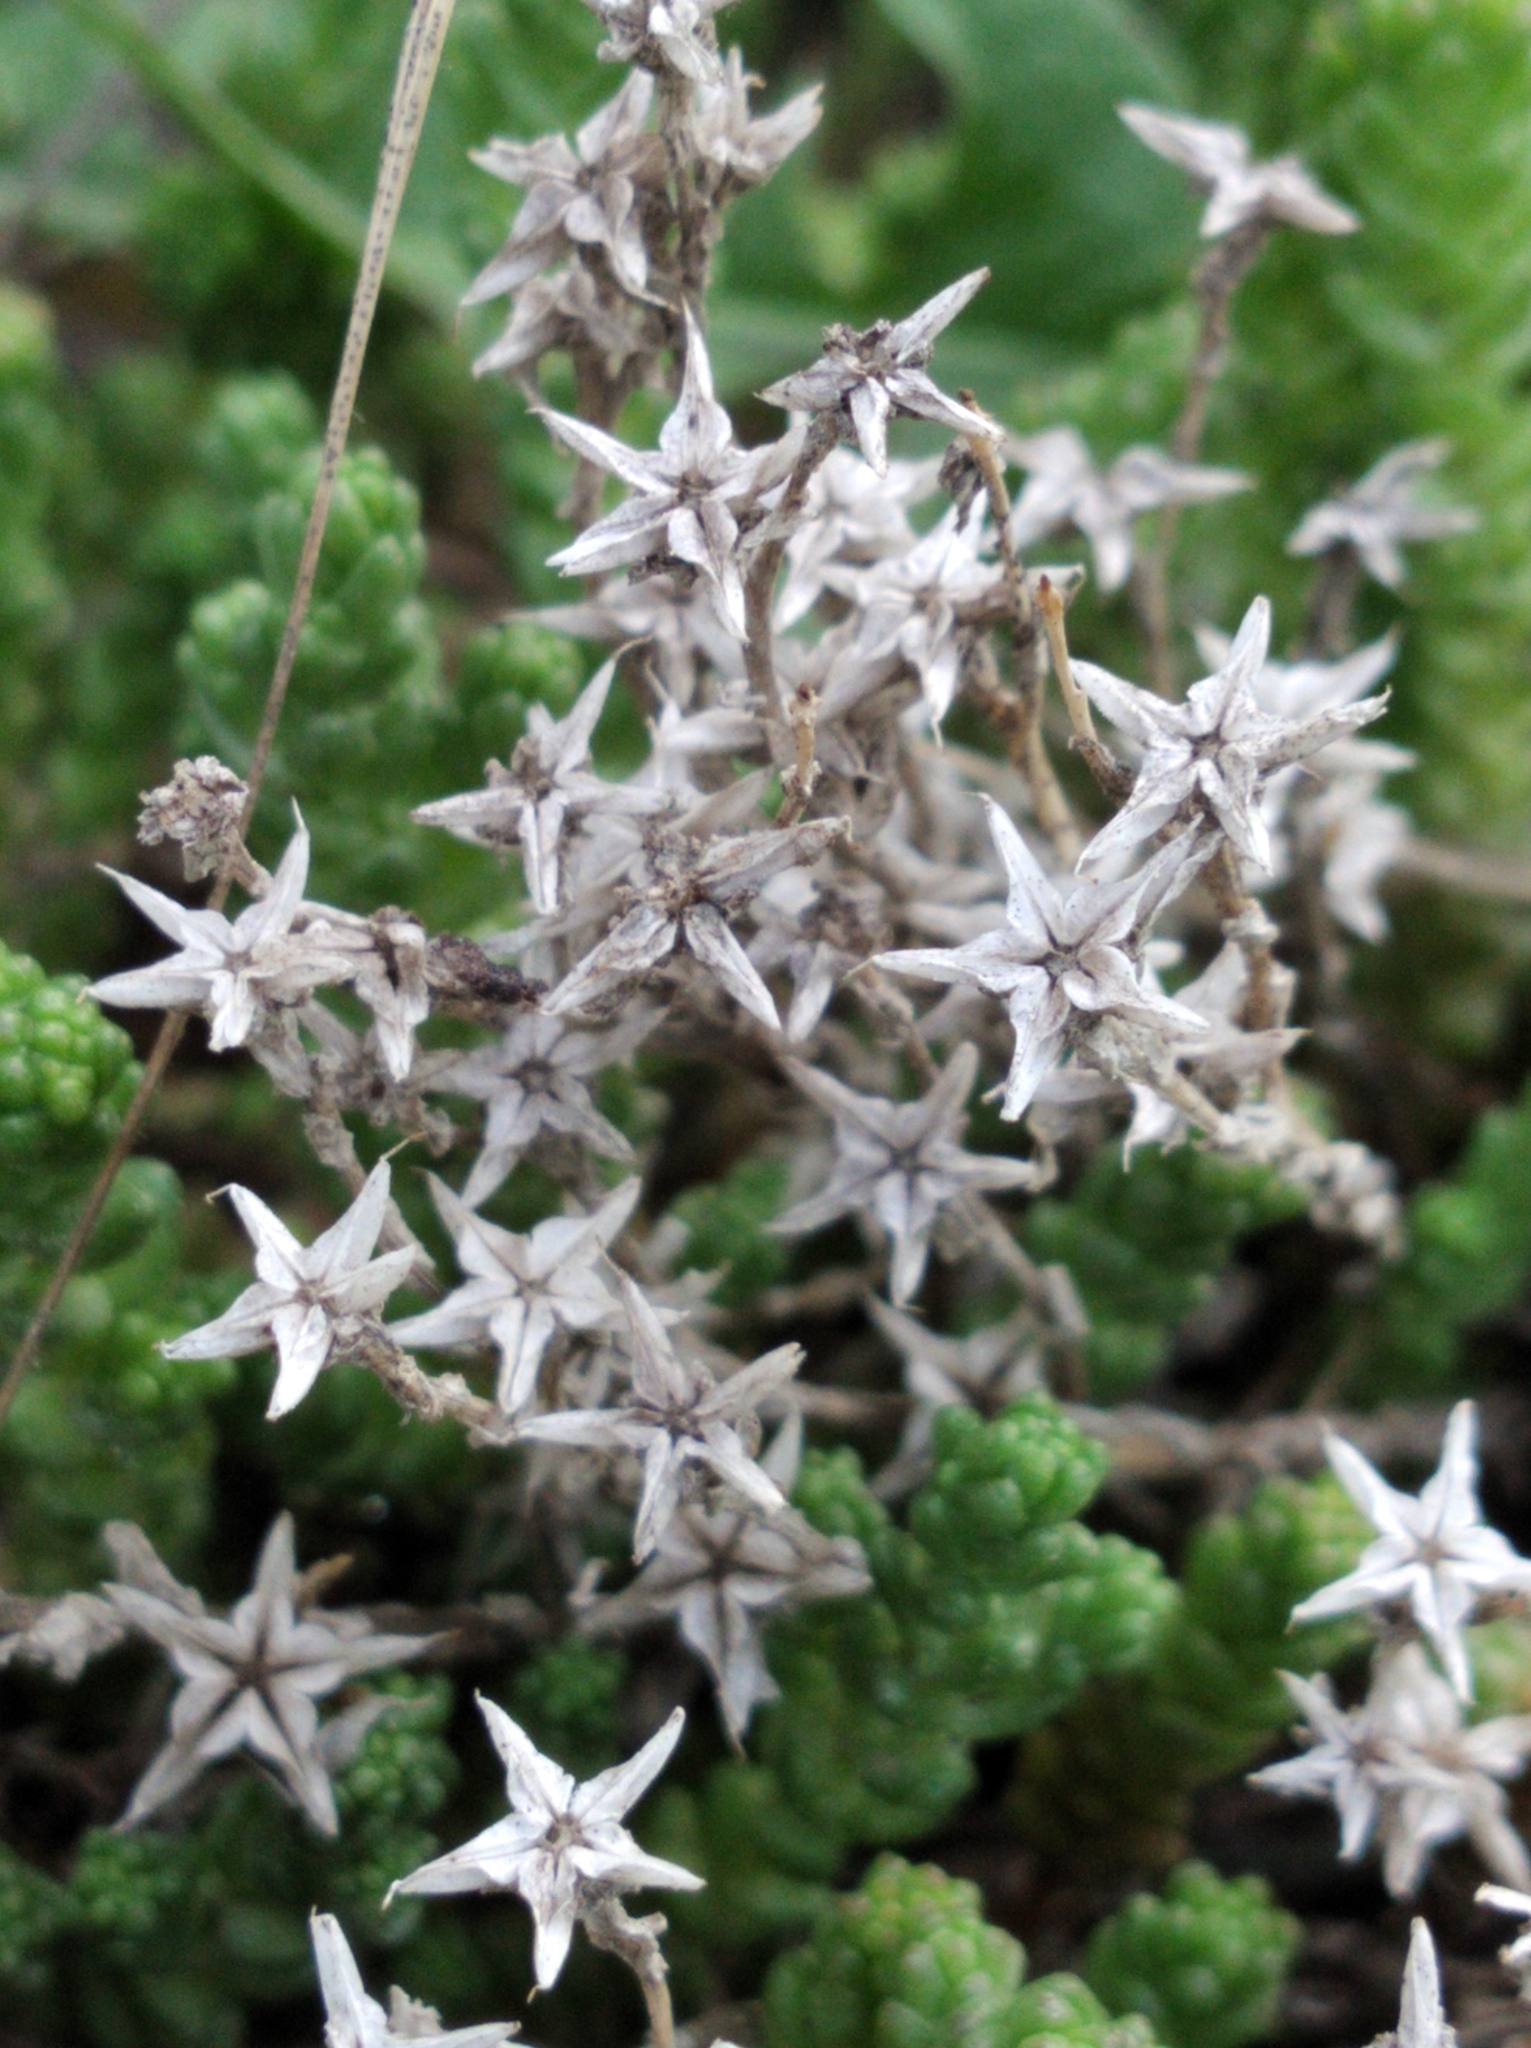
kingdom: Plantae
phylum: Tracheophyta
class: Magnoliopsida
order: Saxifragales
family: Crassulaceae
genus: Sedum
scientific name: Sedum acre
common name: Biting stonecrop
